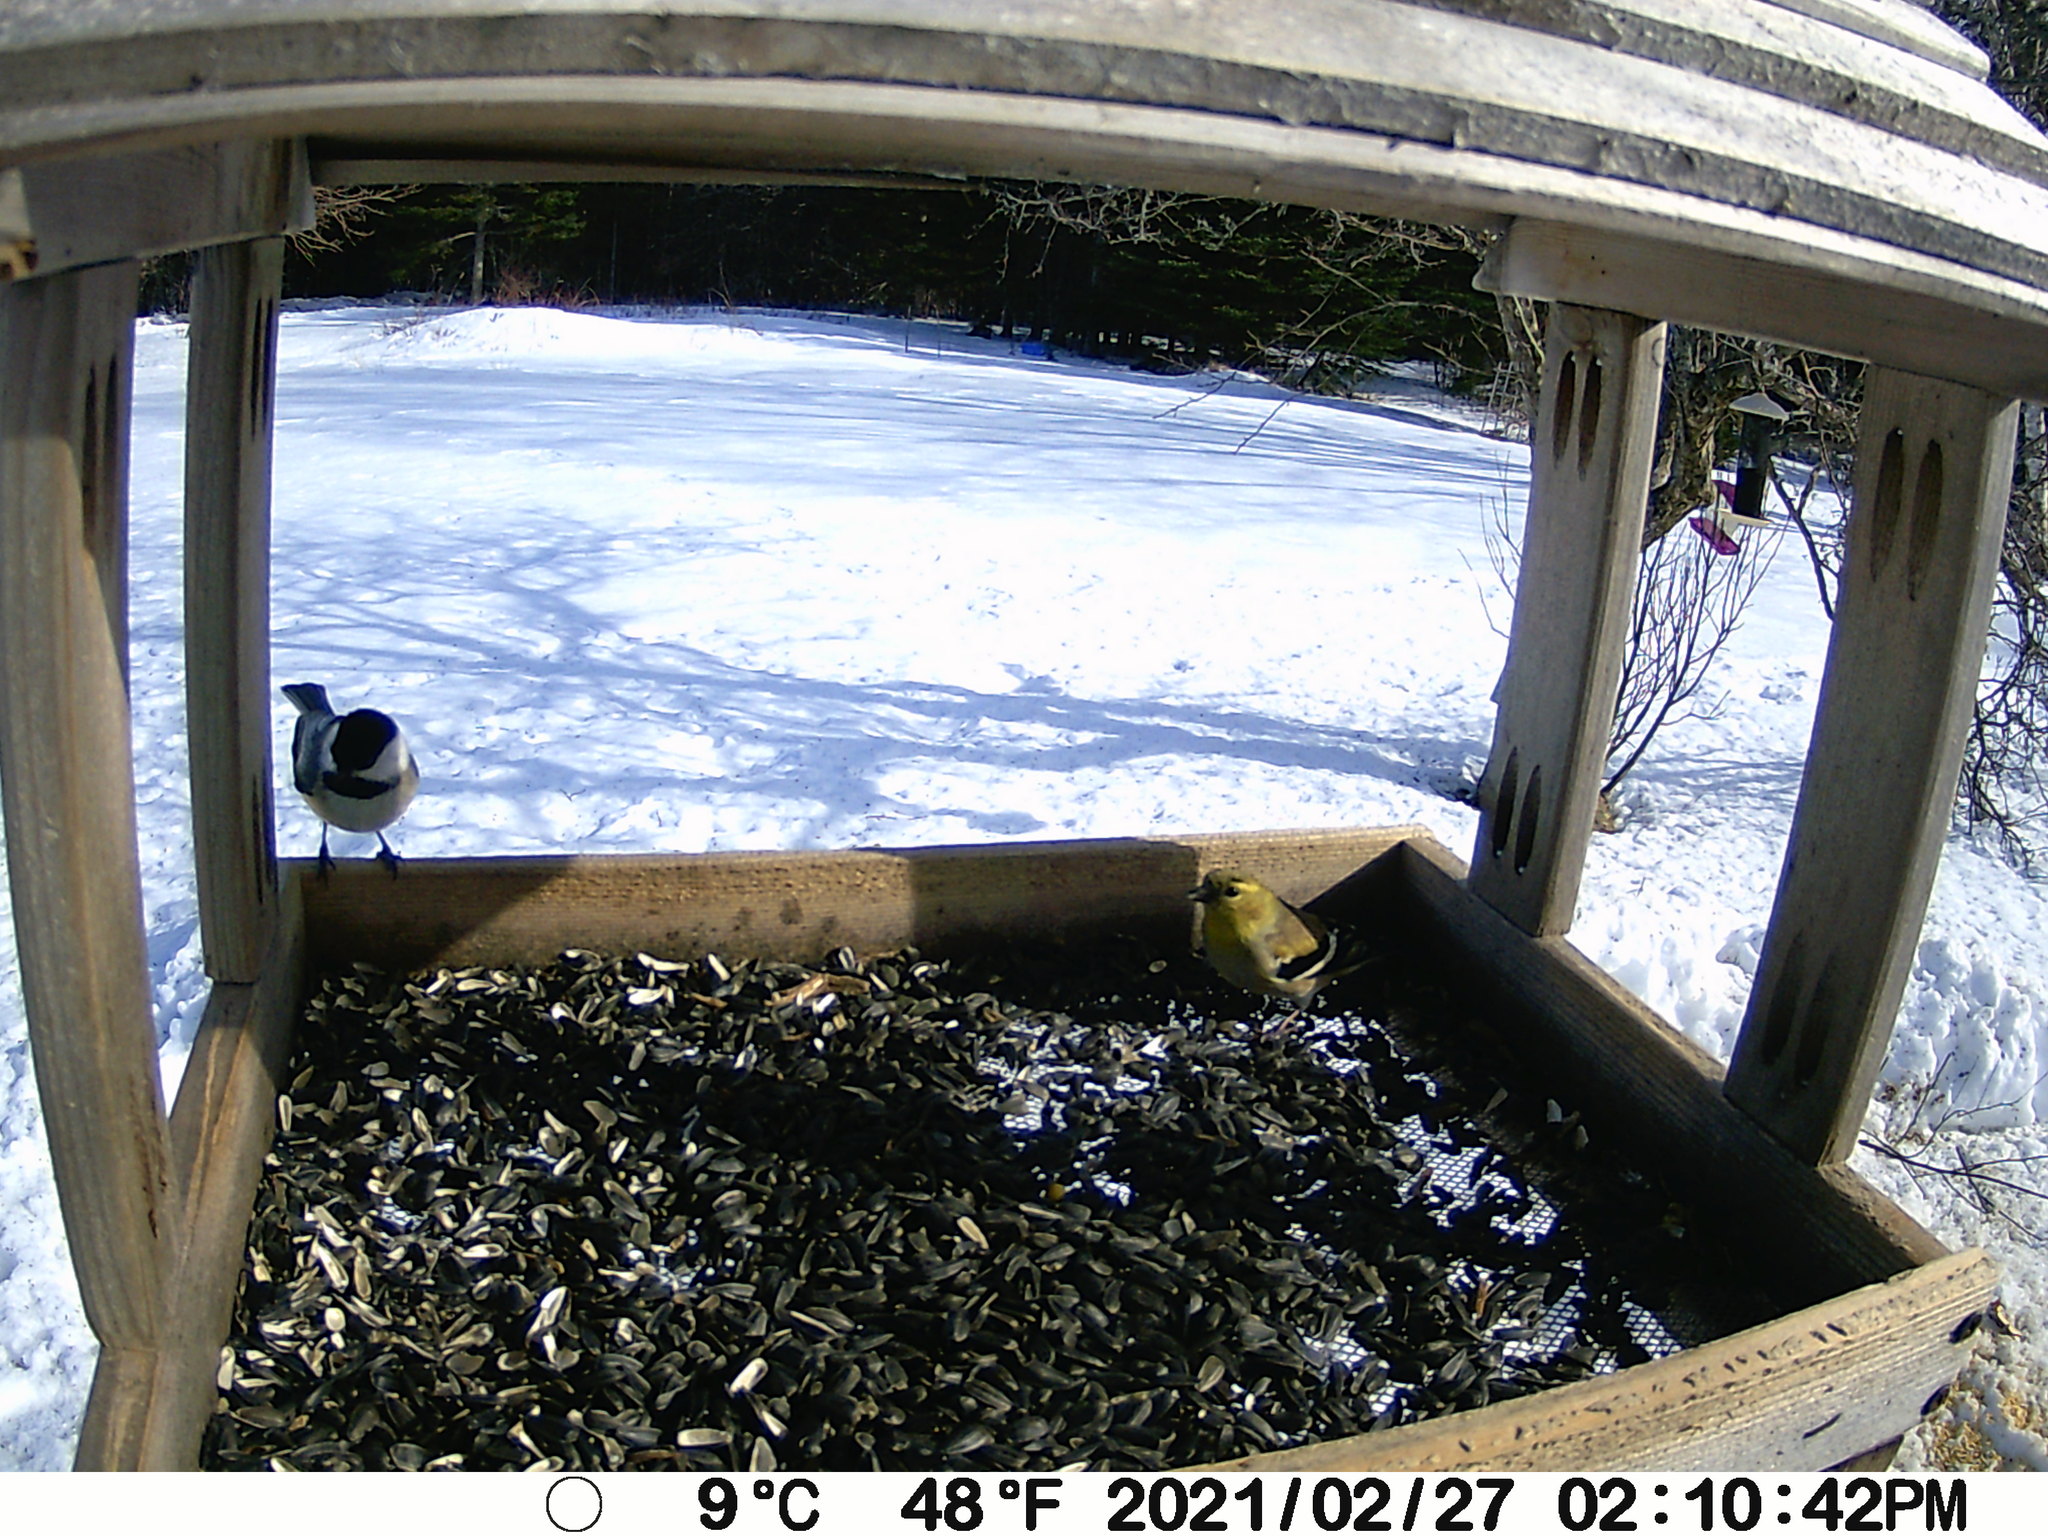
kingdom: Animalia
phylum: Chordata
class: Aves
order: Passeriformes
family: Fringillidae
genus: Spinus
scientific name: Spinus tristis
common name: American goldfinch
